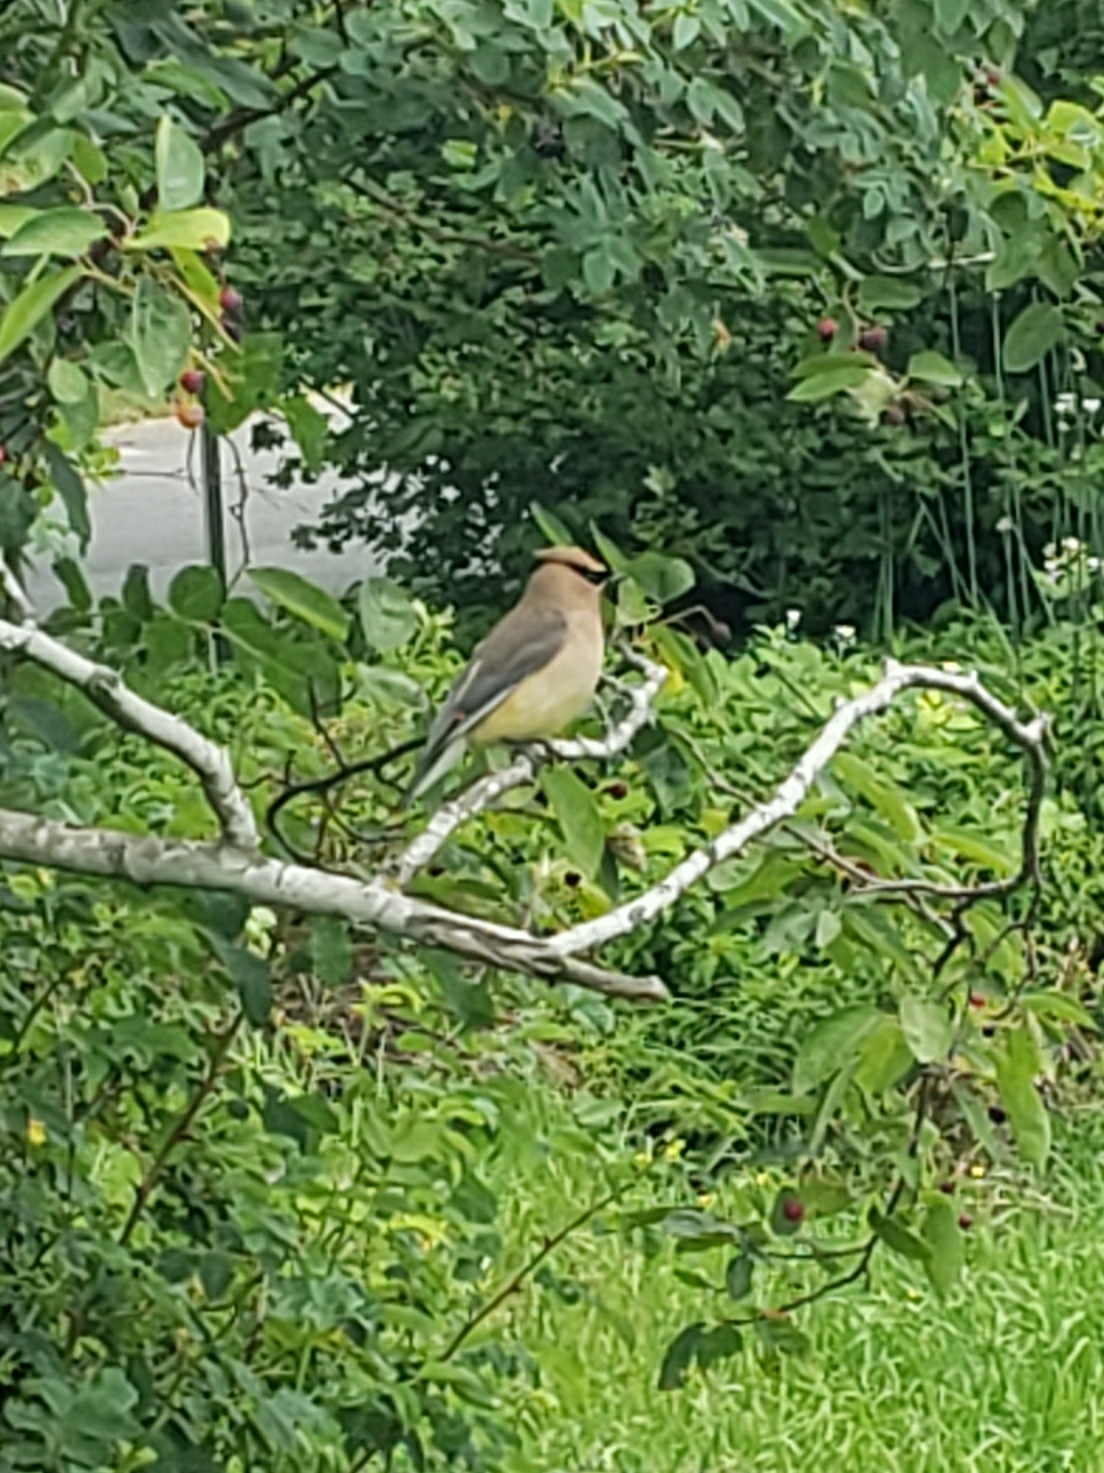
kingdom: Animalia
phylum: Chordata
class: Aves
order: Passeriformes
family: Bombycillidae
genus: Bombycilla
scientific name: Bombycilla cedrorum
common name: Cedar waxwing
